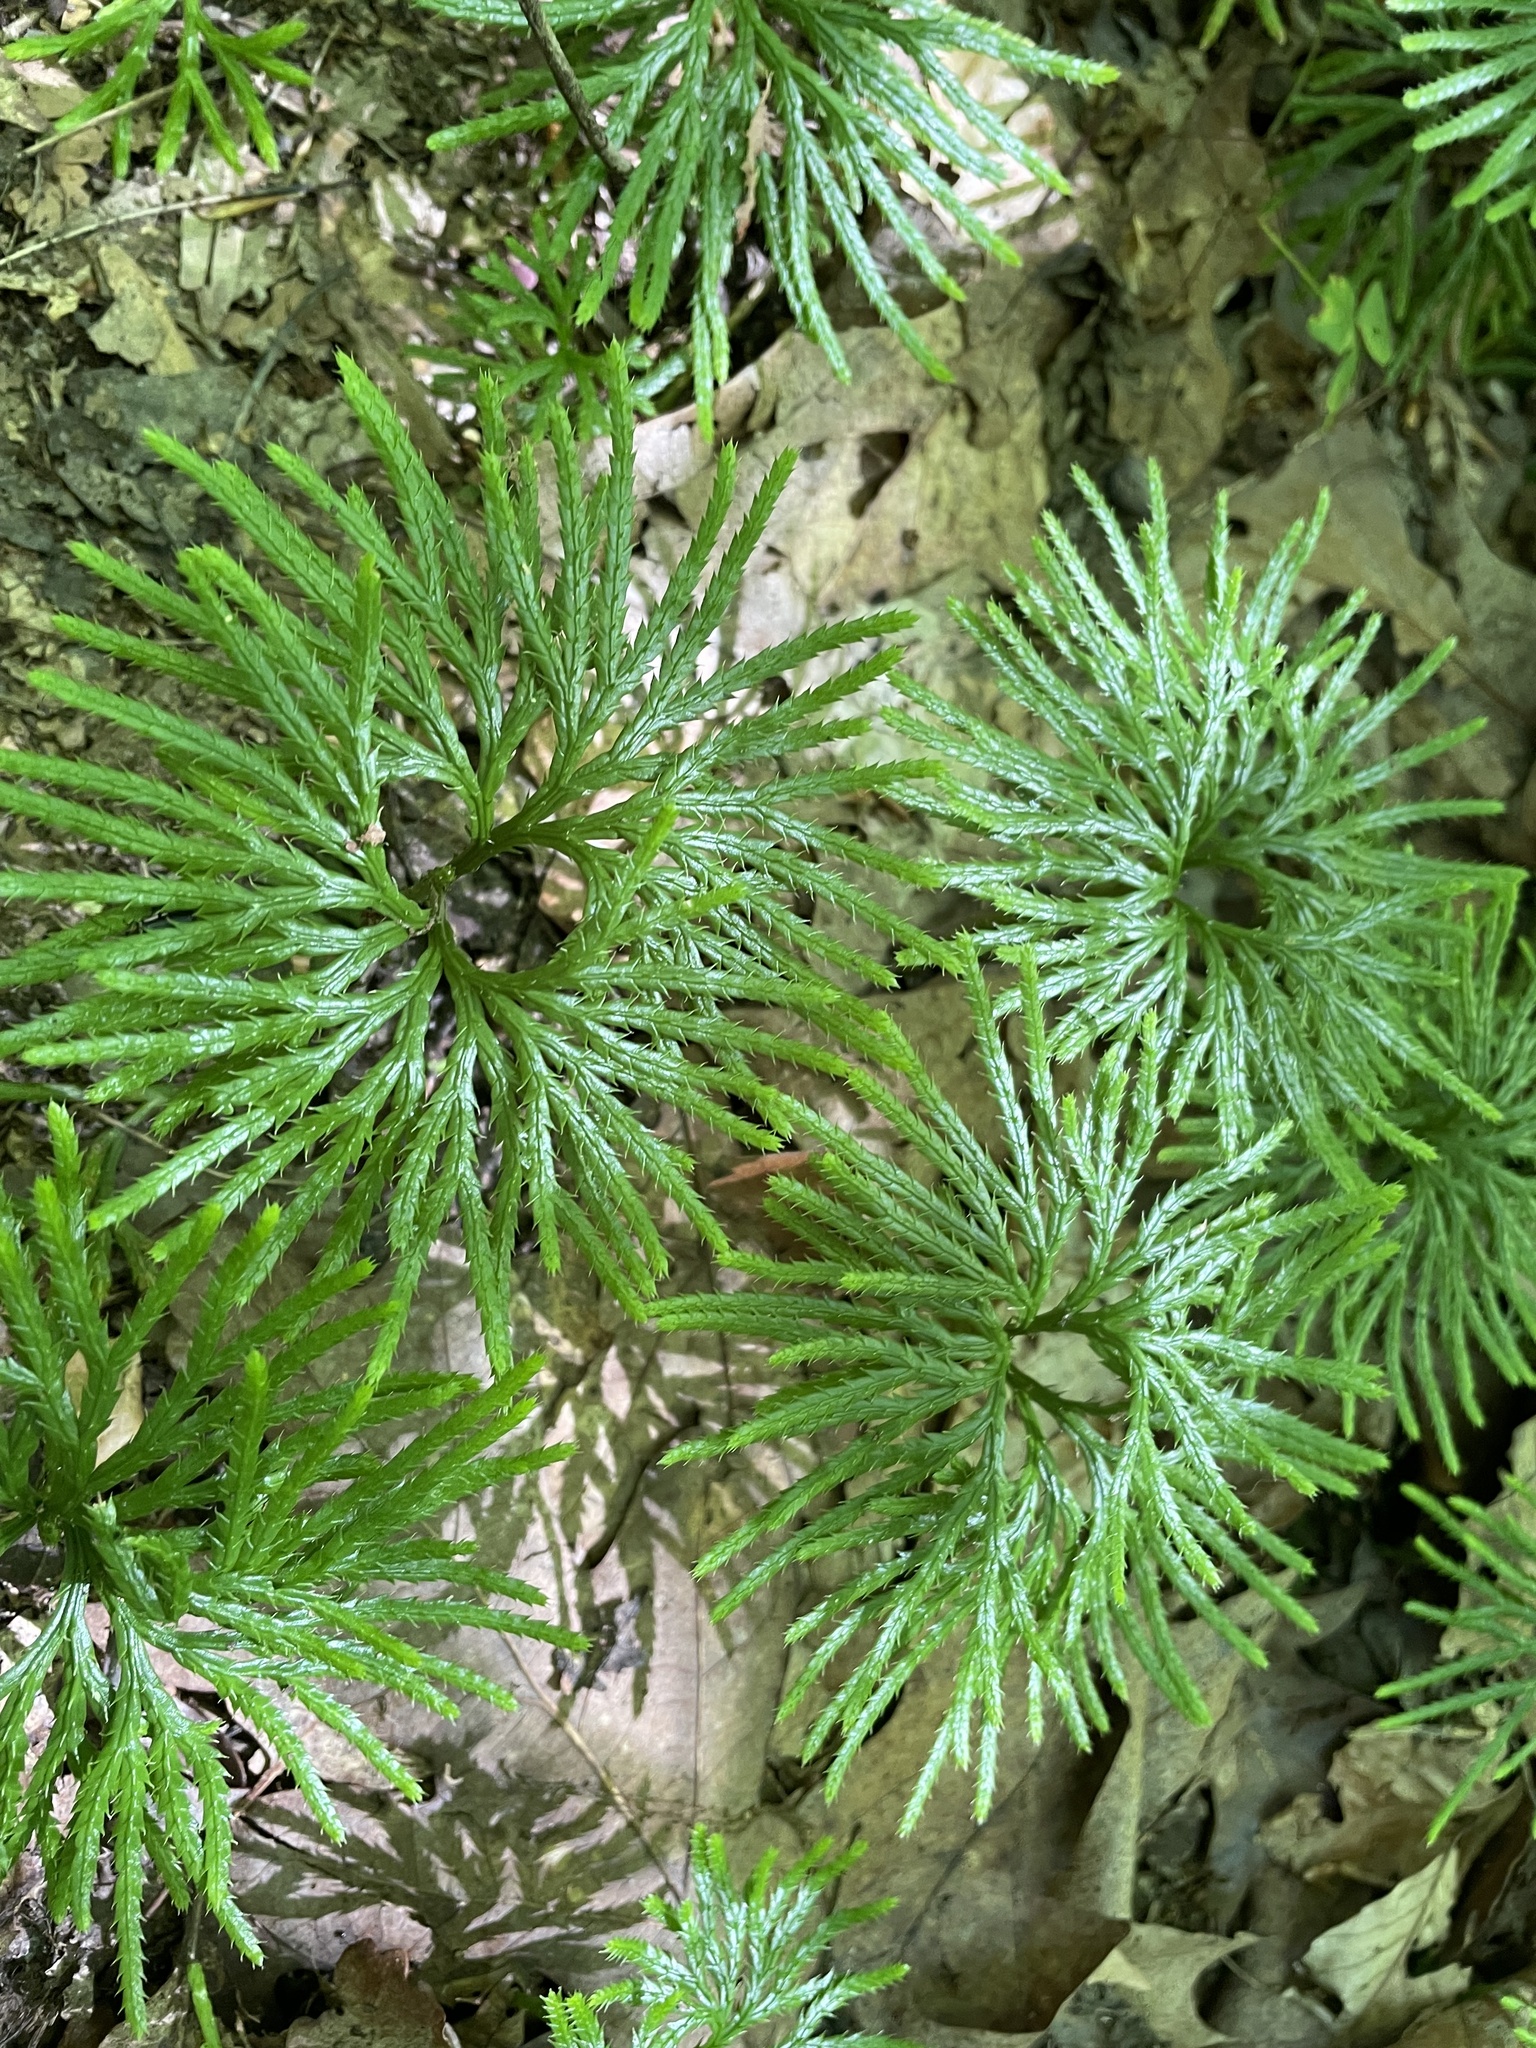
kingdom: Plantae
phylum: Tracheophyta
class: Lycopodiopsida
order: Lycopodiales
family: Lycopodiaceae
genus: Diphasiastrum
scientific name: Diphasiastrum digitatum
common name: Southern running-pine
